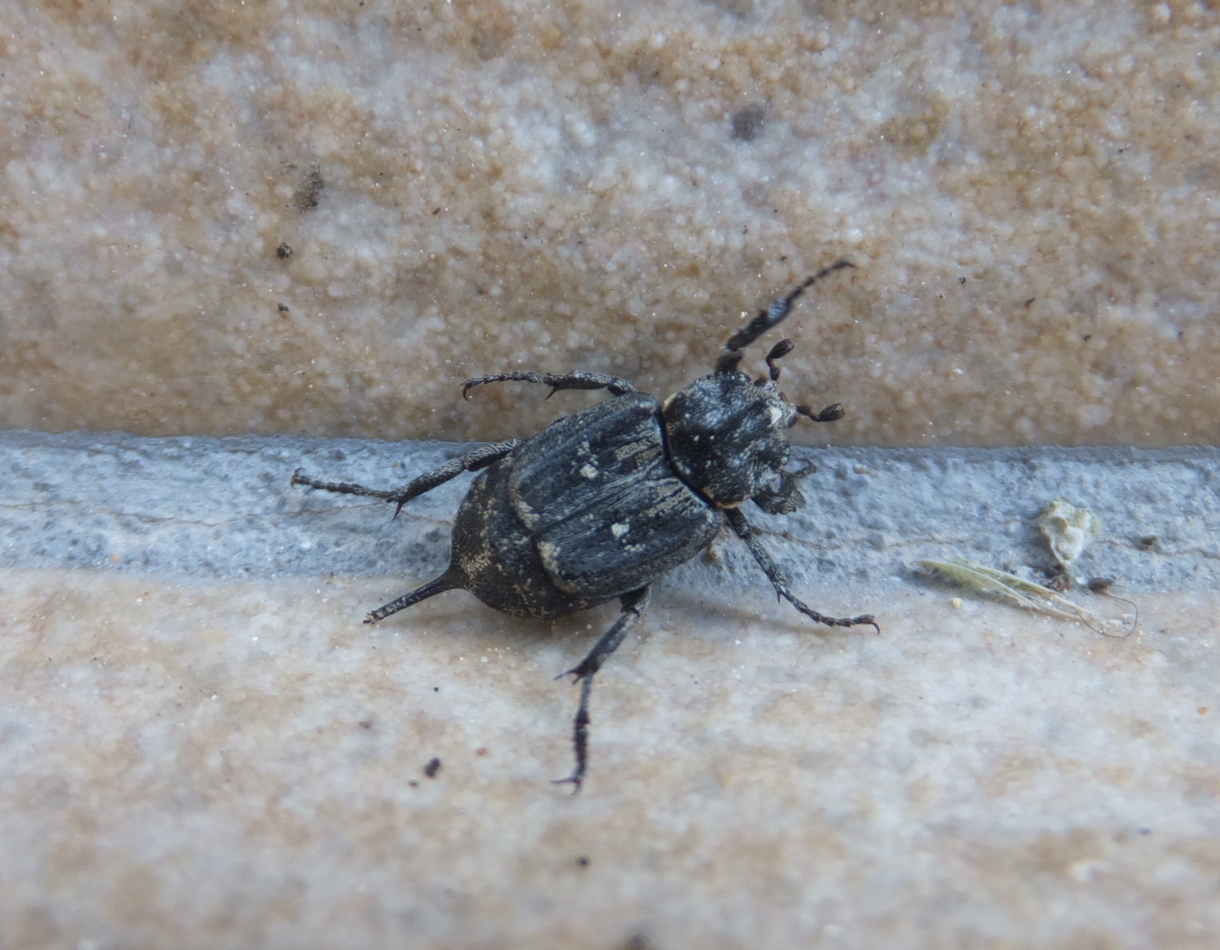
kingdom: Animalia
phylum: Arthropoda
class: Insecta
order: Coleoptera
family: Scarabaeidae
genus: Valgus
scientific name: Valgus hemipterus
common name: Bug flower chafer
